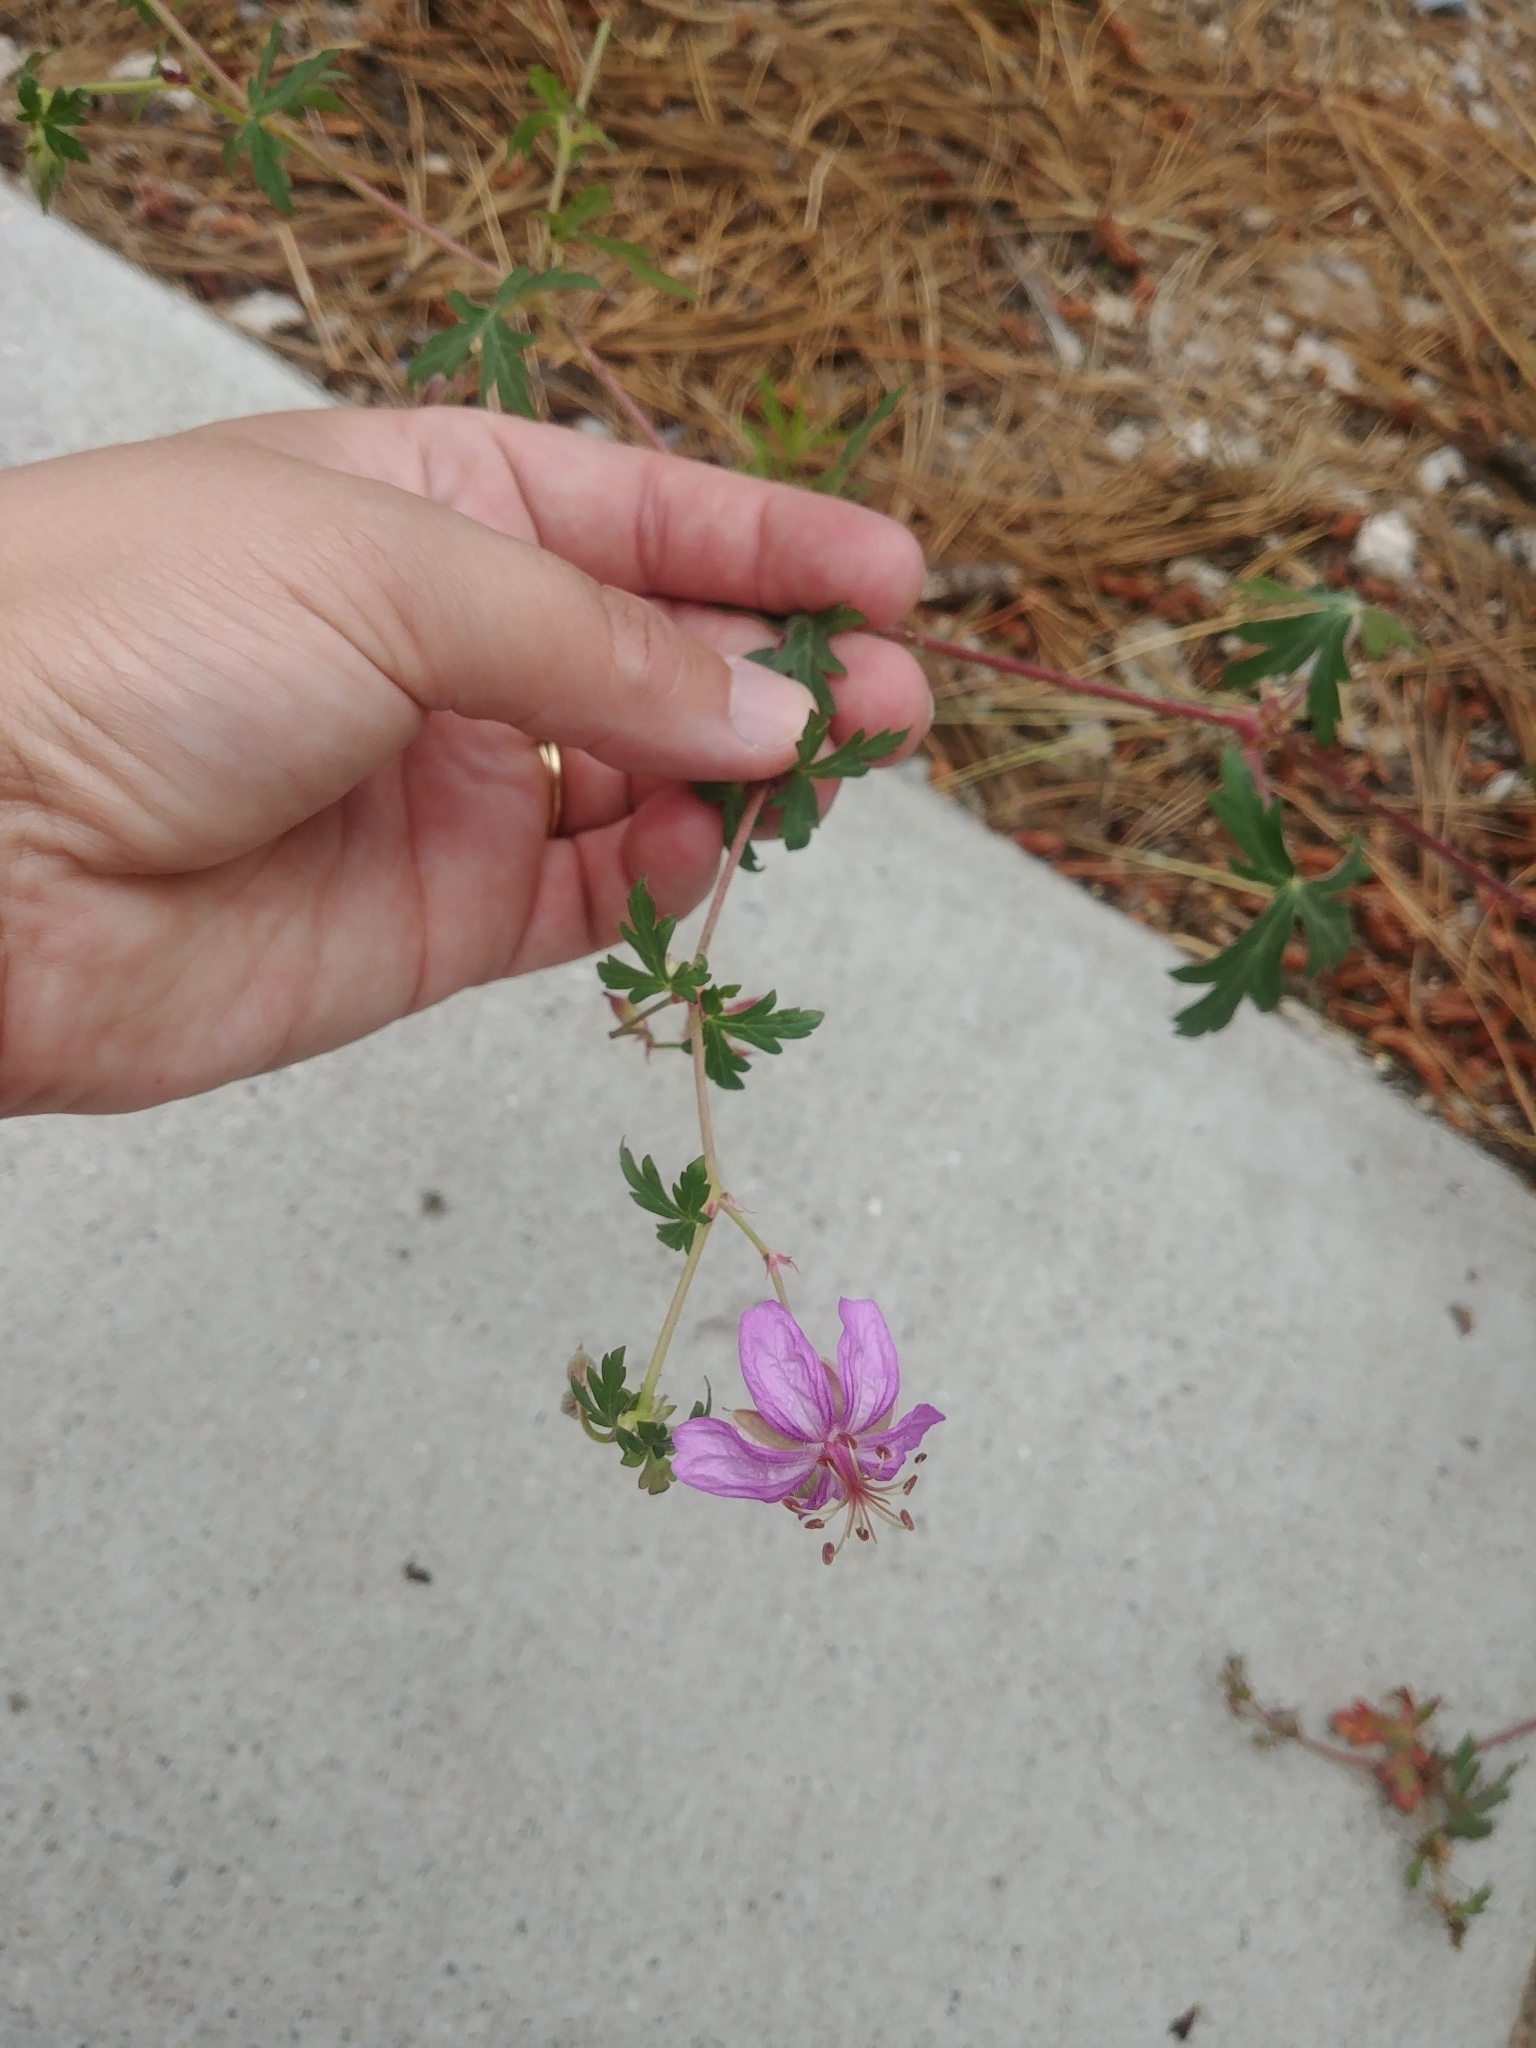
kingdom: Plantae
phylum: Tracheophyta
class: Magnoliopsida
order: Geraniales
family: Geraniaceae
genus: Geranium
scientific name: Geranium caespitosum
